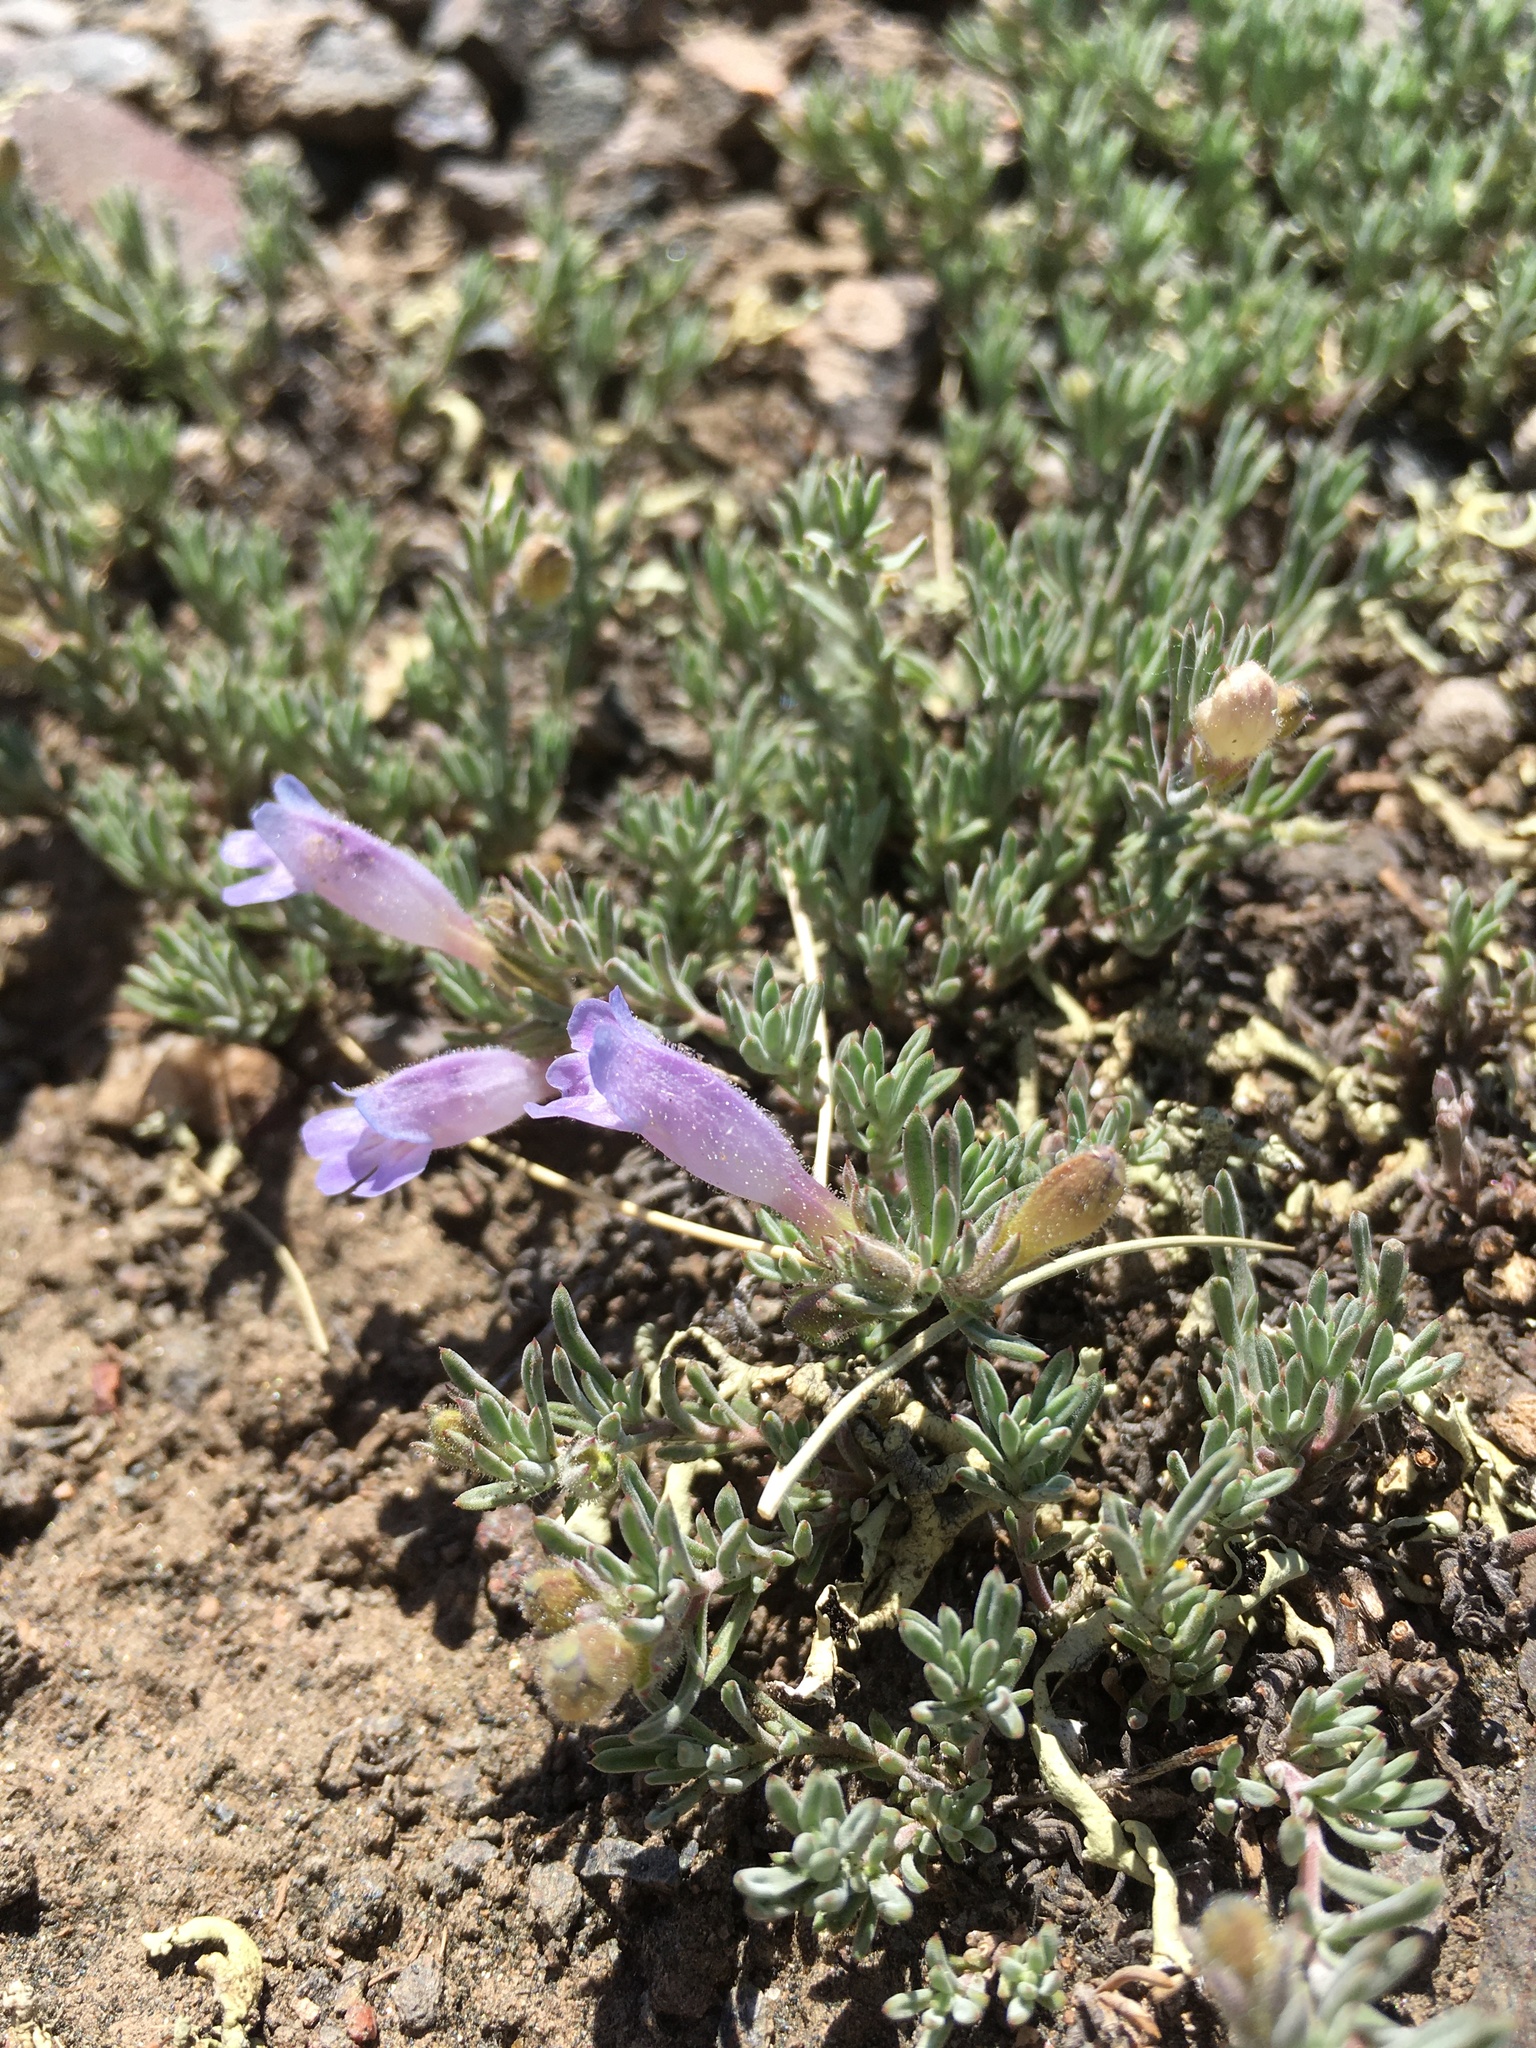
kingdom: Plantae
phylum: Tracheophyta
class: Magnoliopsida
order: Lamiales
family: Plantaginaceae
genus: Penstemon
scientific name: Penstemon caespitosus
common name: Mat penstemon
